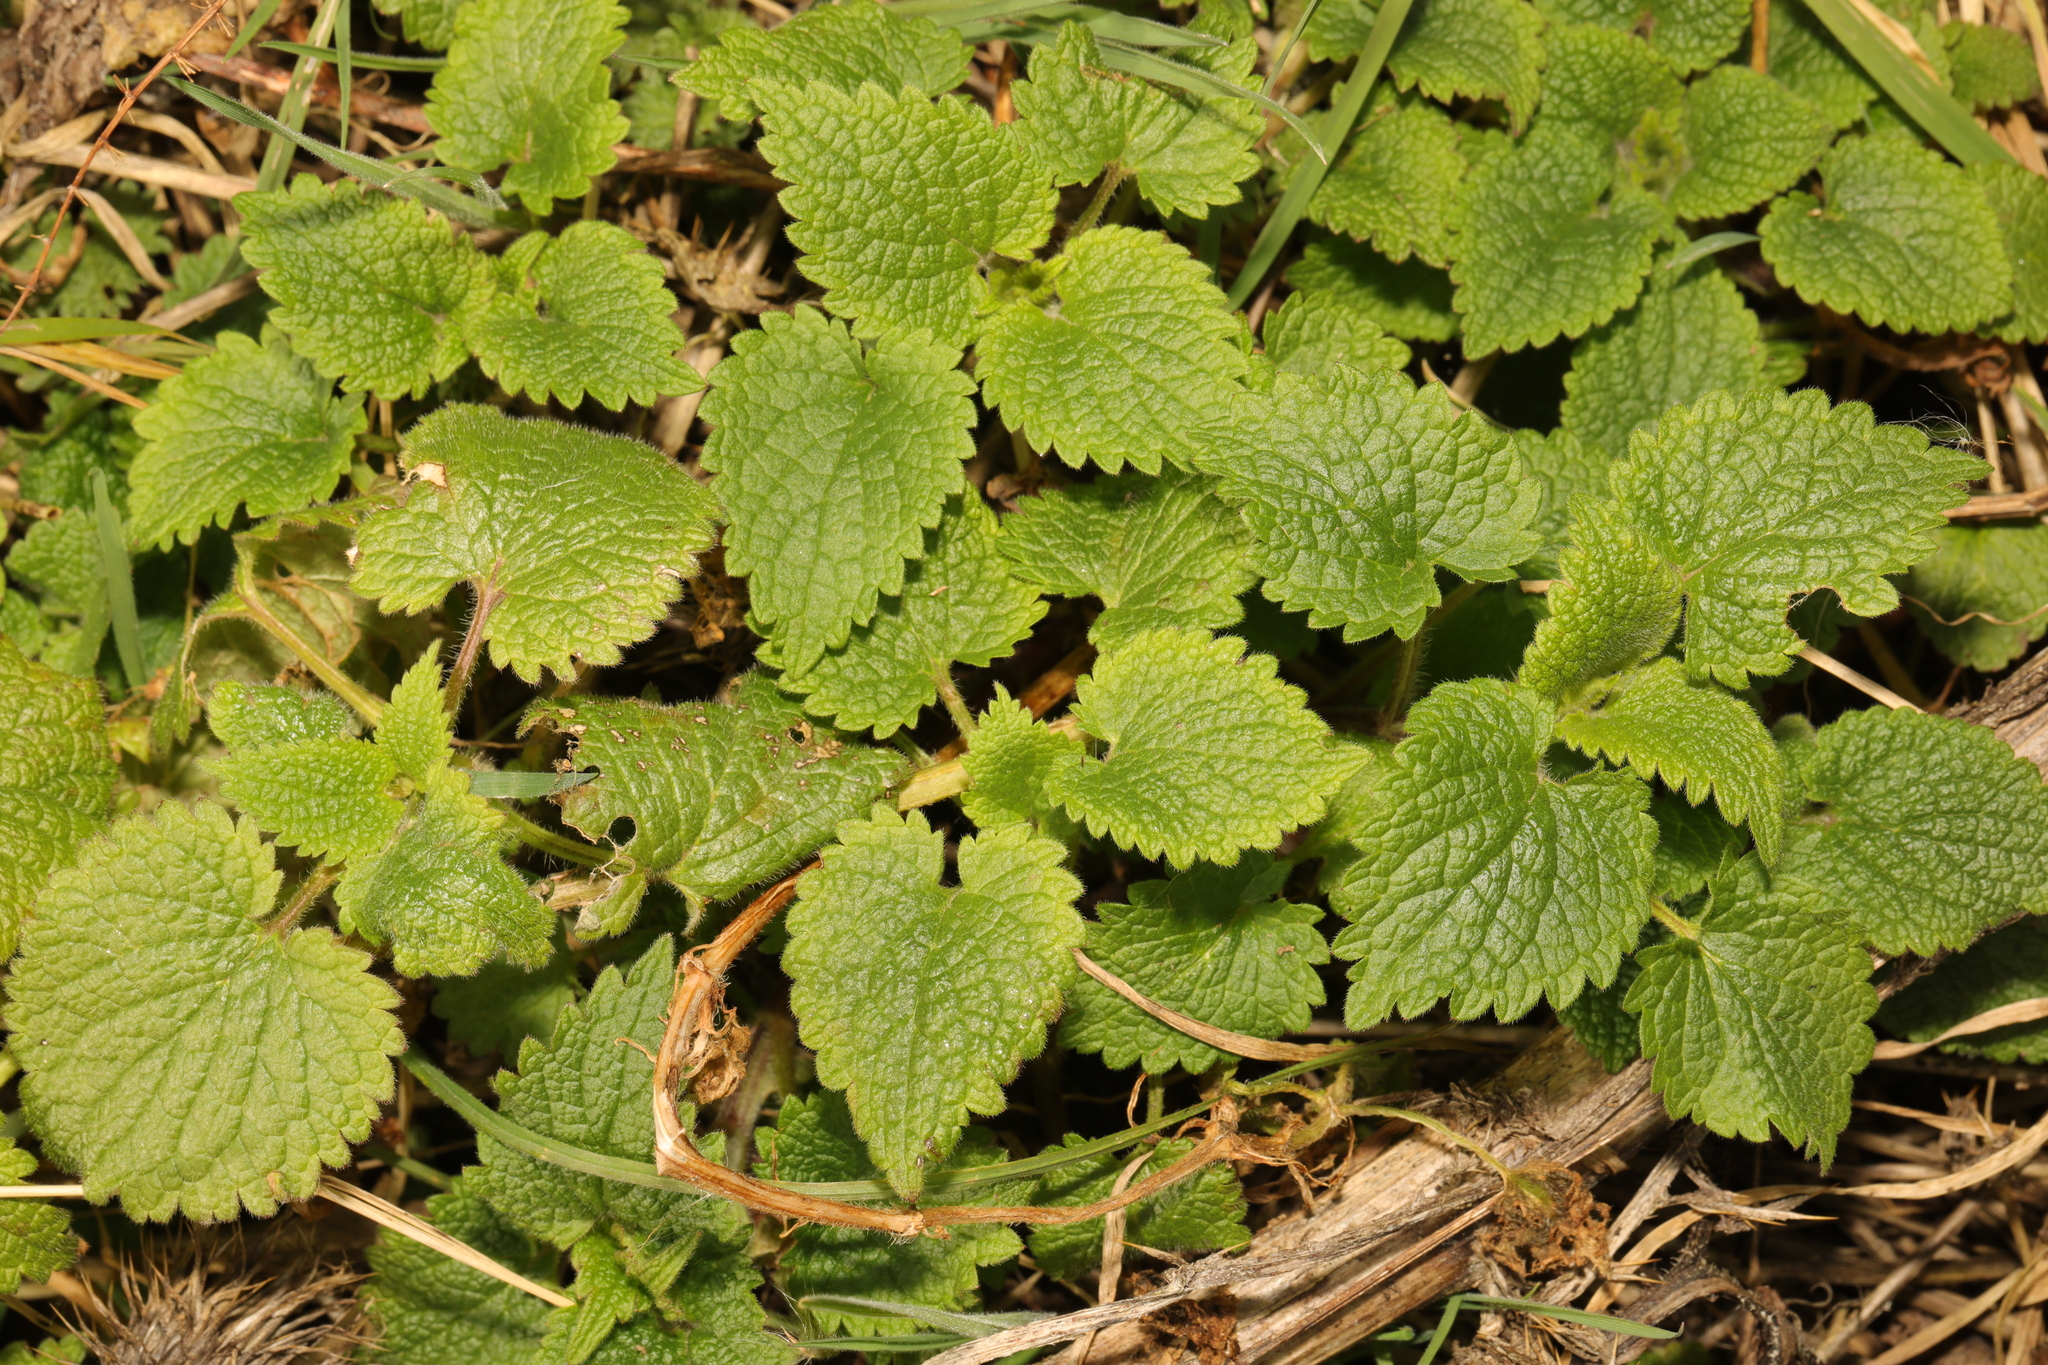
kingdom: Plantae
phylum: Tracheophyta
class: Magnoliopsida
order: Lamiales
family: Lamiaceae
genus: Lamium
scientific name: Lamium album
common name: White dead-nettle
